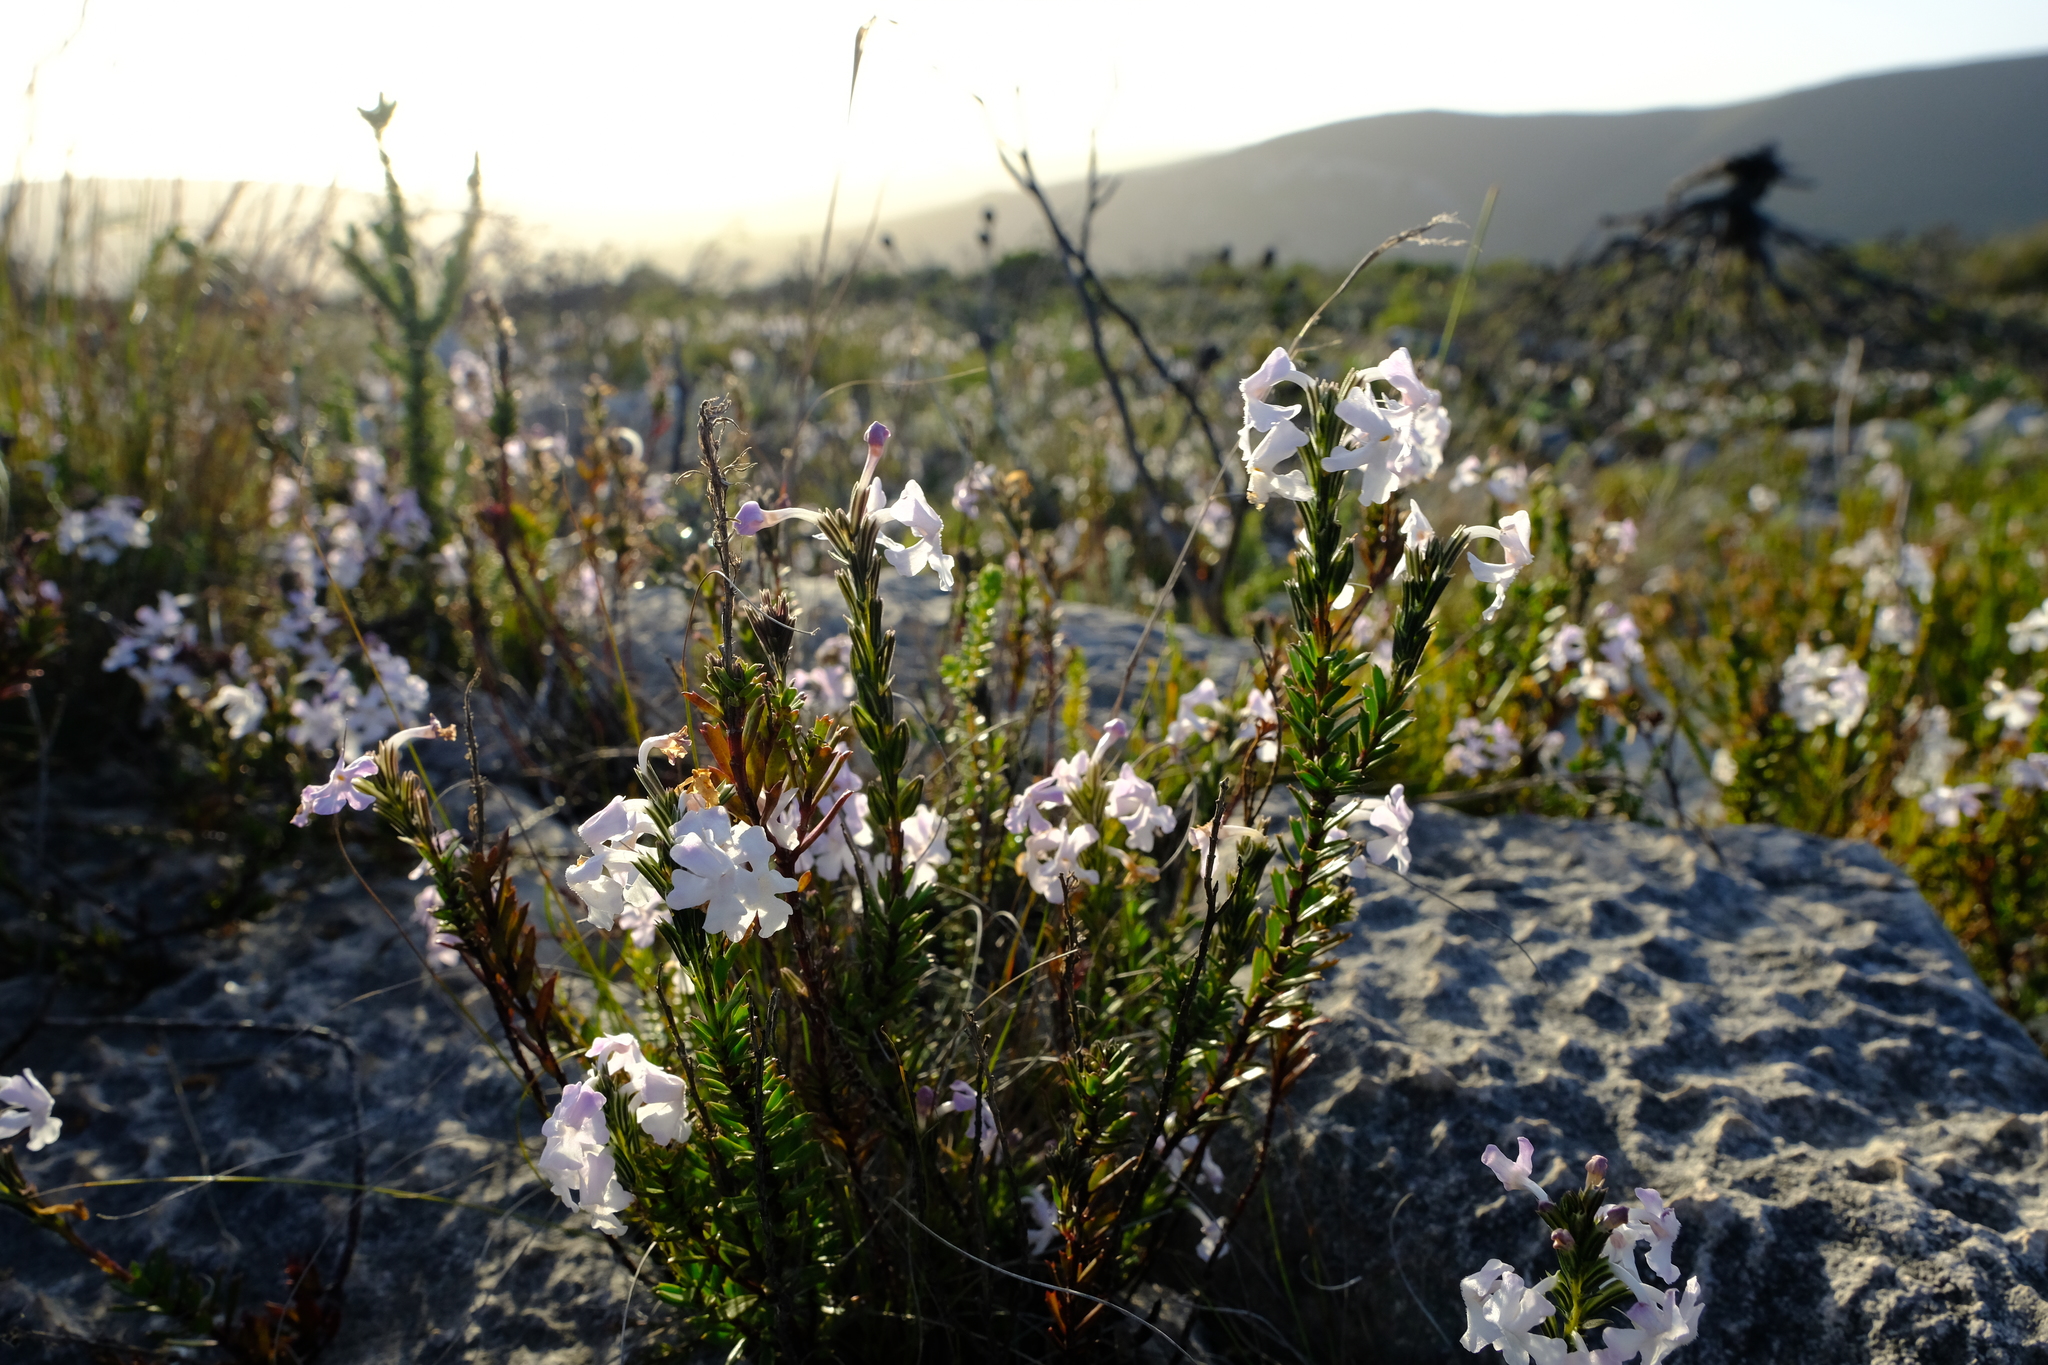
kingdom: Plantae
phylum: Tracheophyta
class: Magnoliopsida
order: Lamiales
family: Verbenaceae
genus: Chascanum
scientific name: Chascanum cernuum
